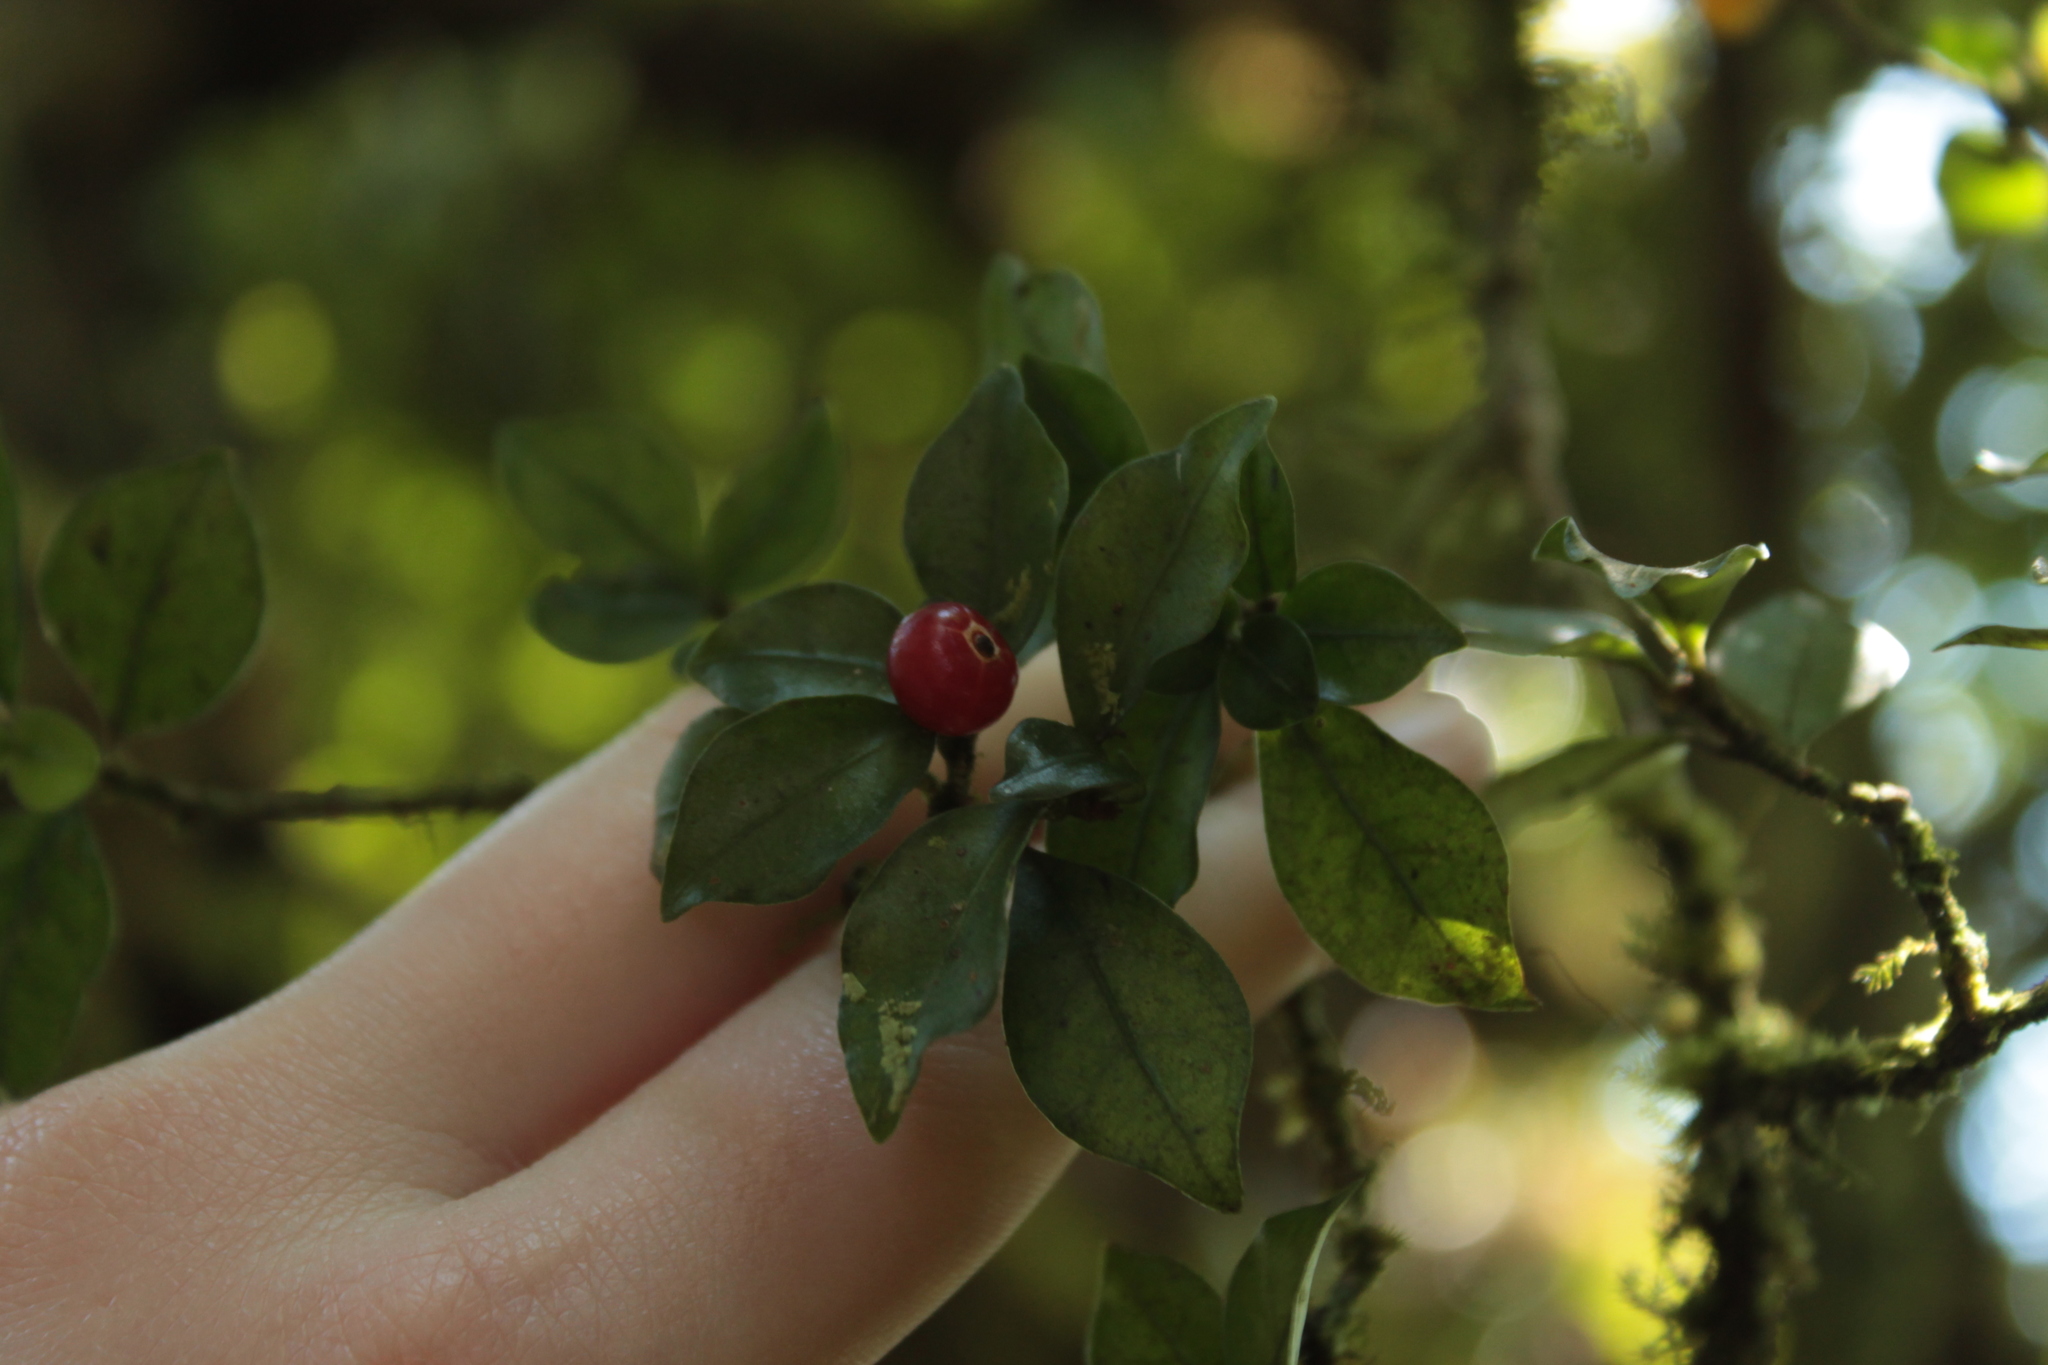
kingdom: Plantae
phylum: Tracheophyta
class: Magnoliopsida
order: Gentianales
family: Rubiaceae
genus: Psychotria
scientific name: Psychotria parvifolia
